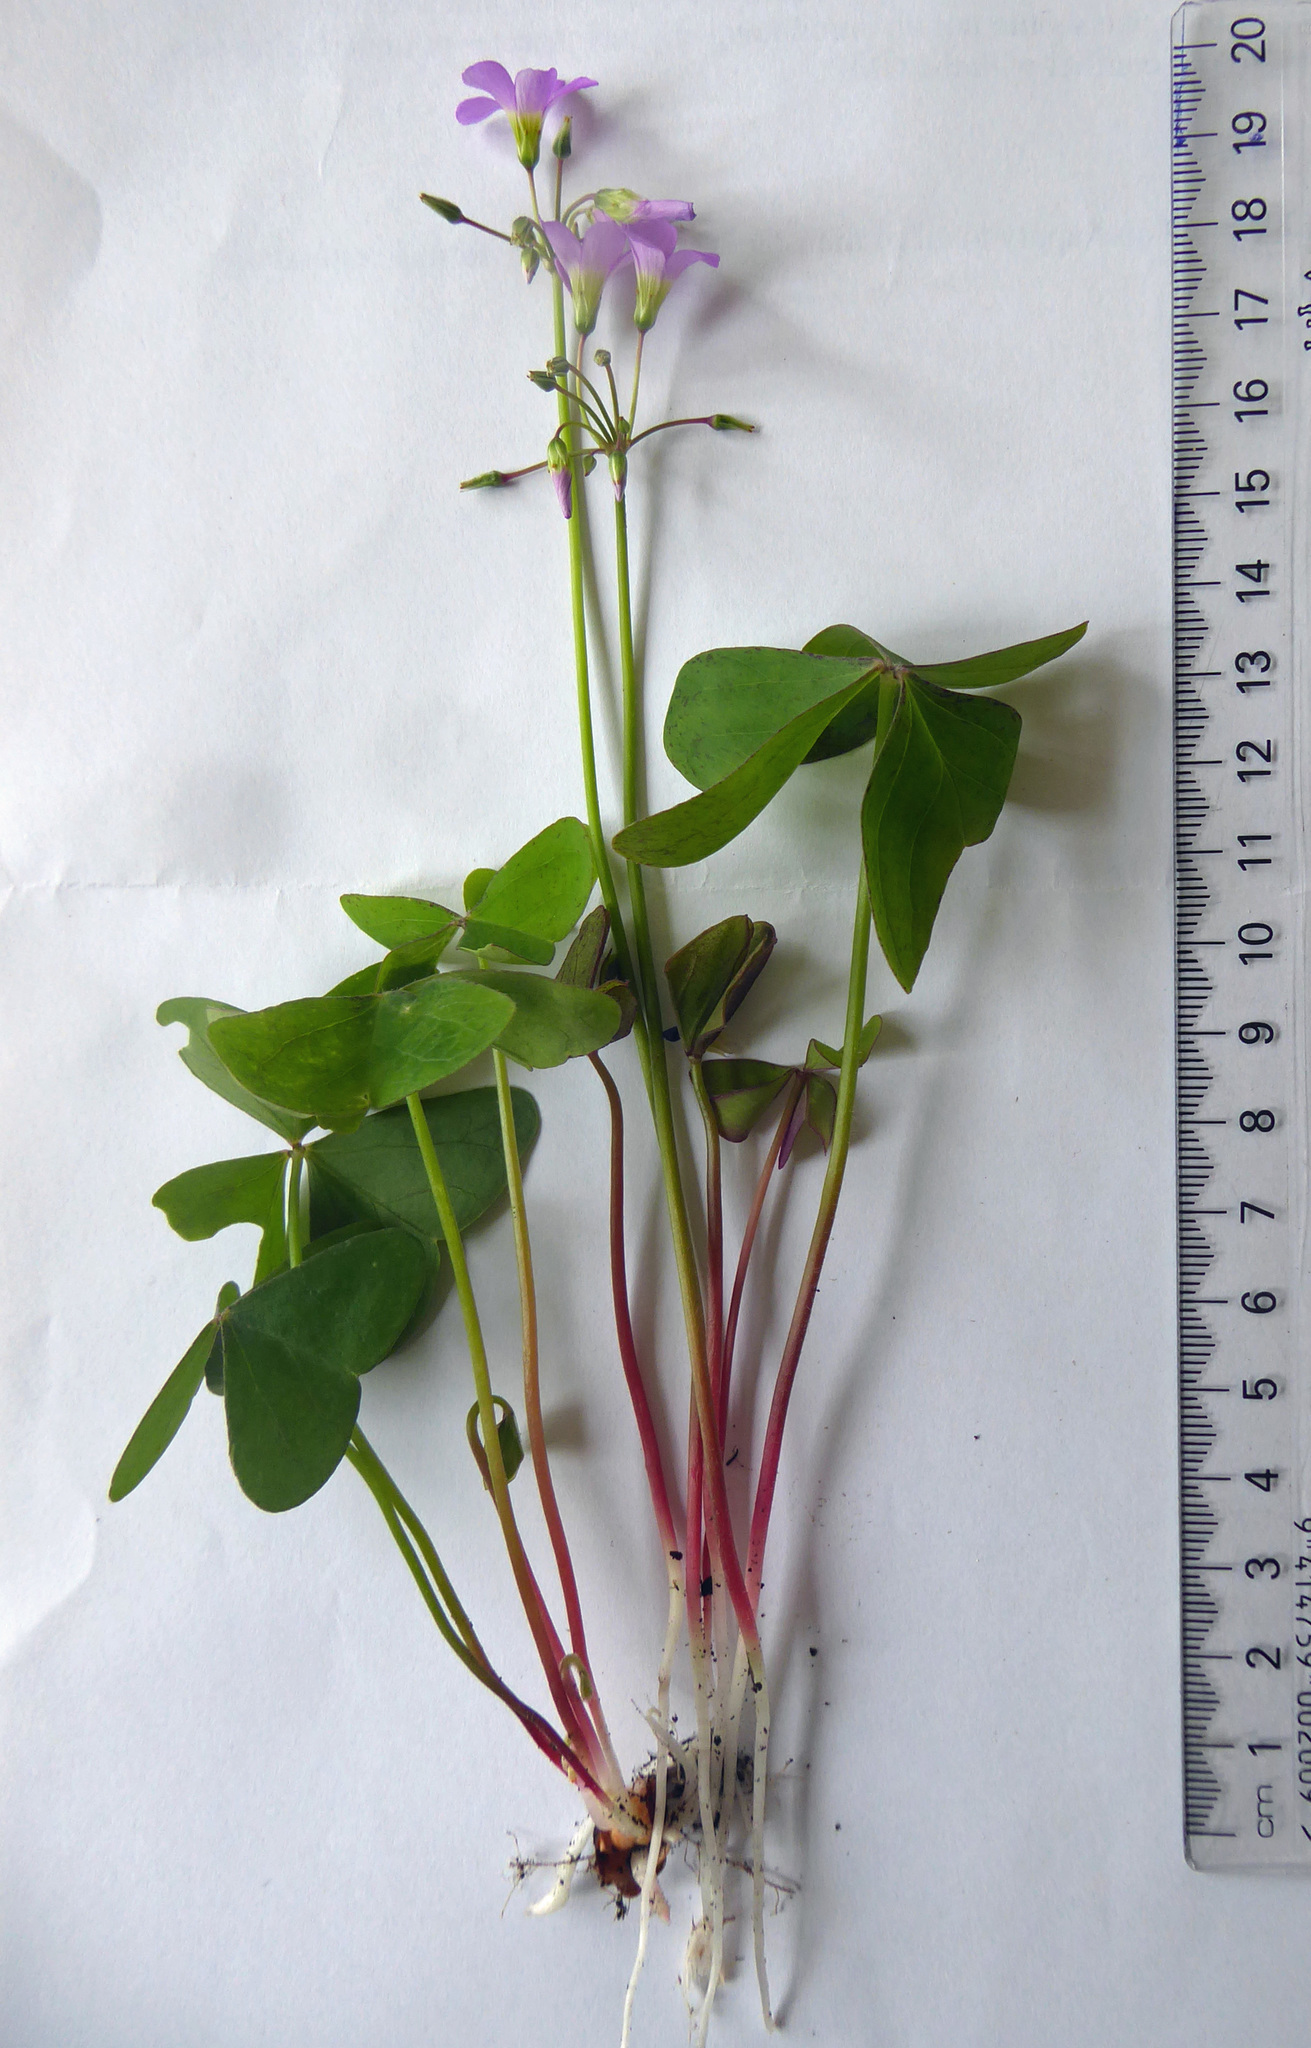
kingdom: Plantae
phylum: Tracheophyta
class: Magnoliopsida
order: Oxalidales
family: Oxalidaceae
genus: Oxalis
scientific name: Oxalis latifolia
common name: Garden pink-sorrel
